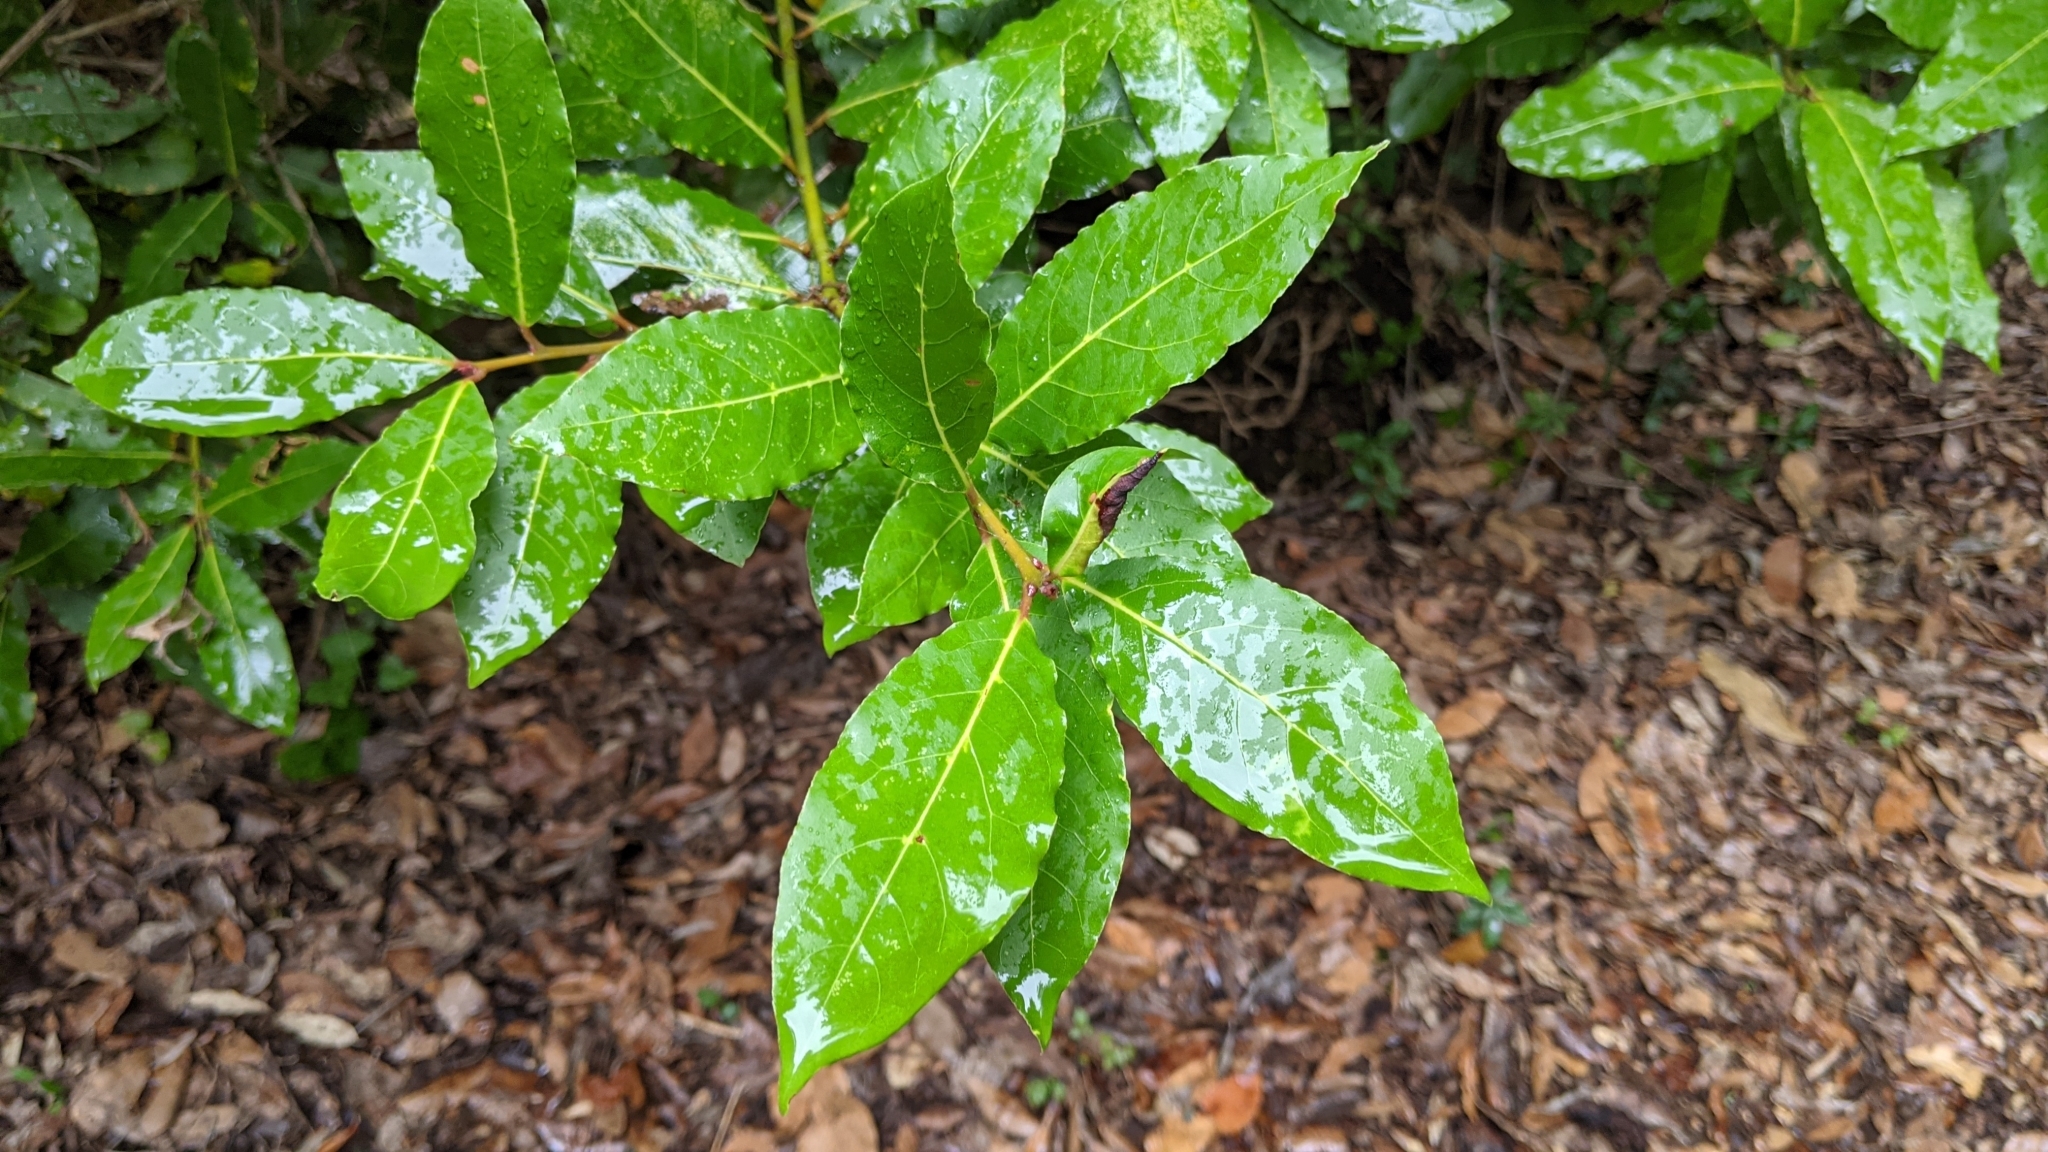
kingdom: Plantae
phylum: Tracheophyta
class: Magnoliopsida
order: Laurales
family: Lauraceae
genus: Laurus
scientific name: Laurus nobilis
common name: Bay
